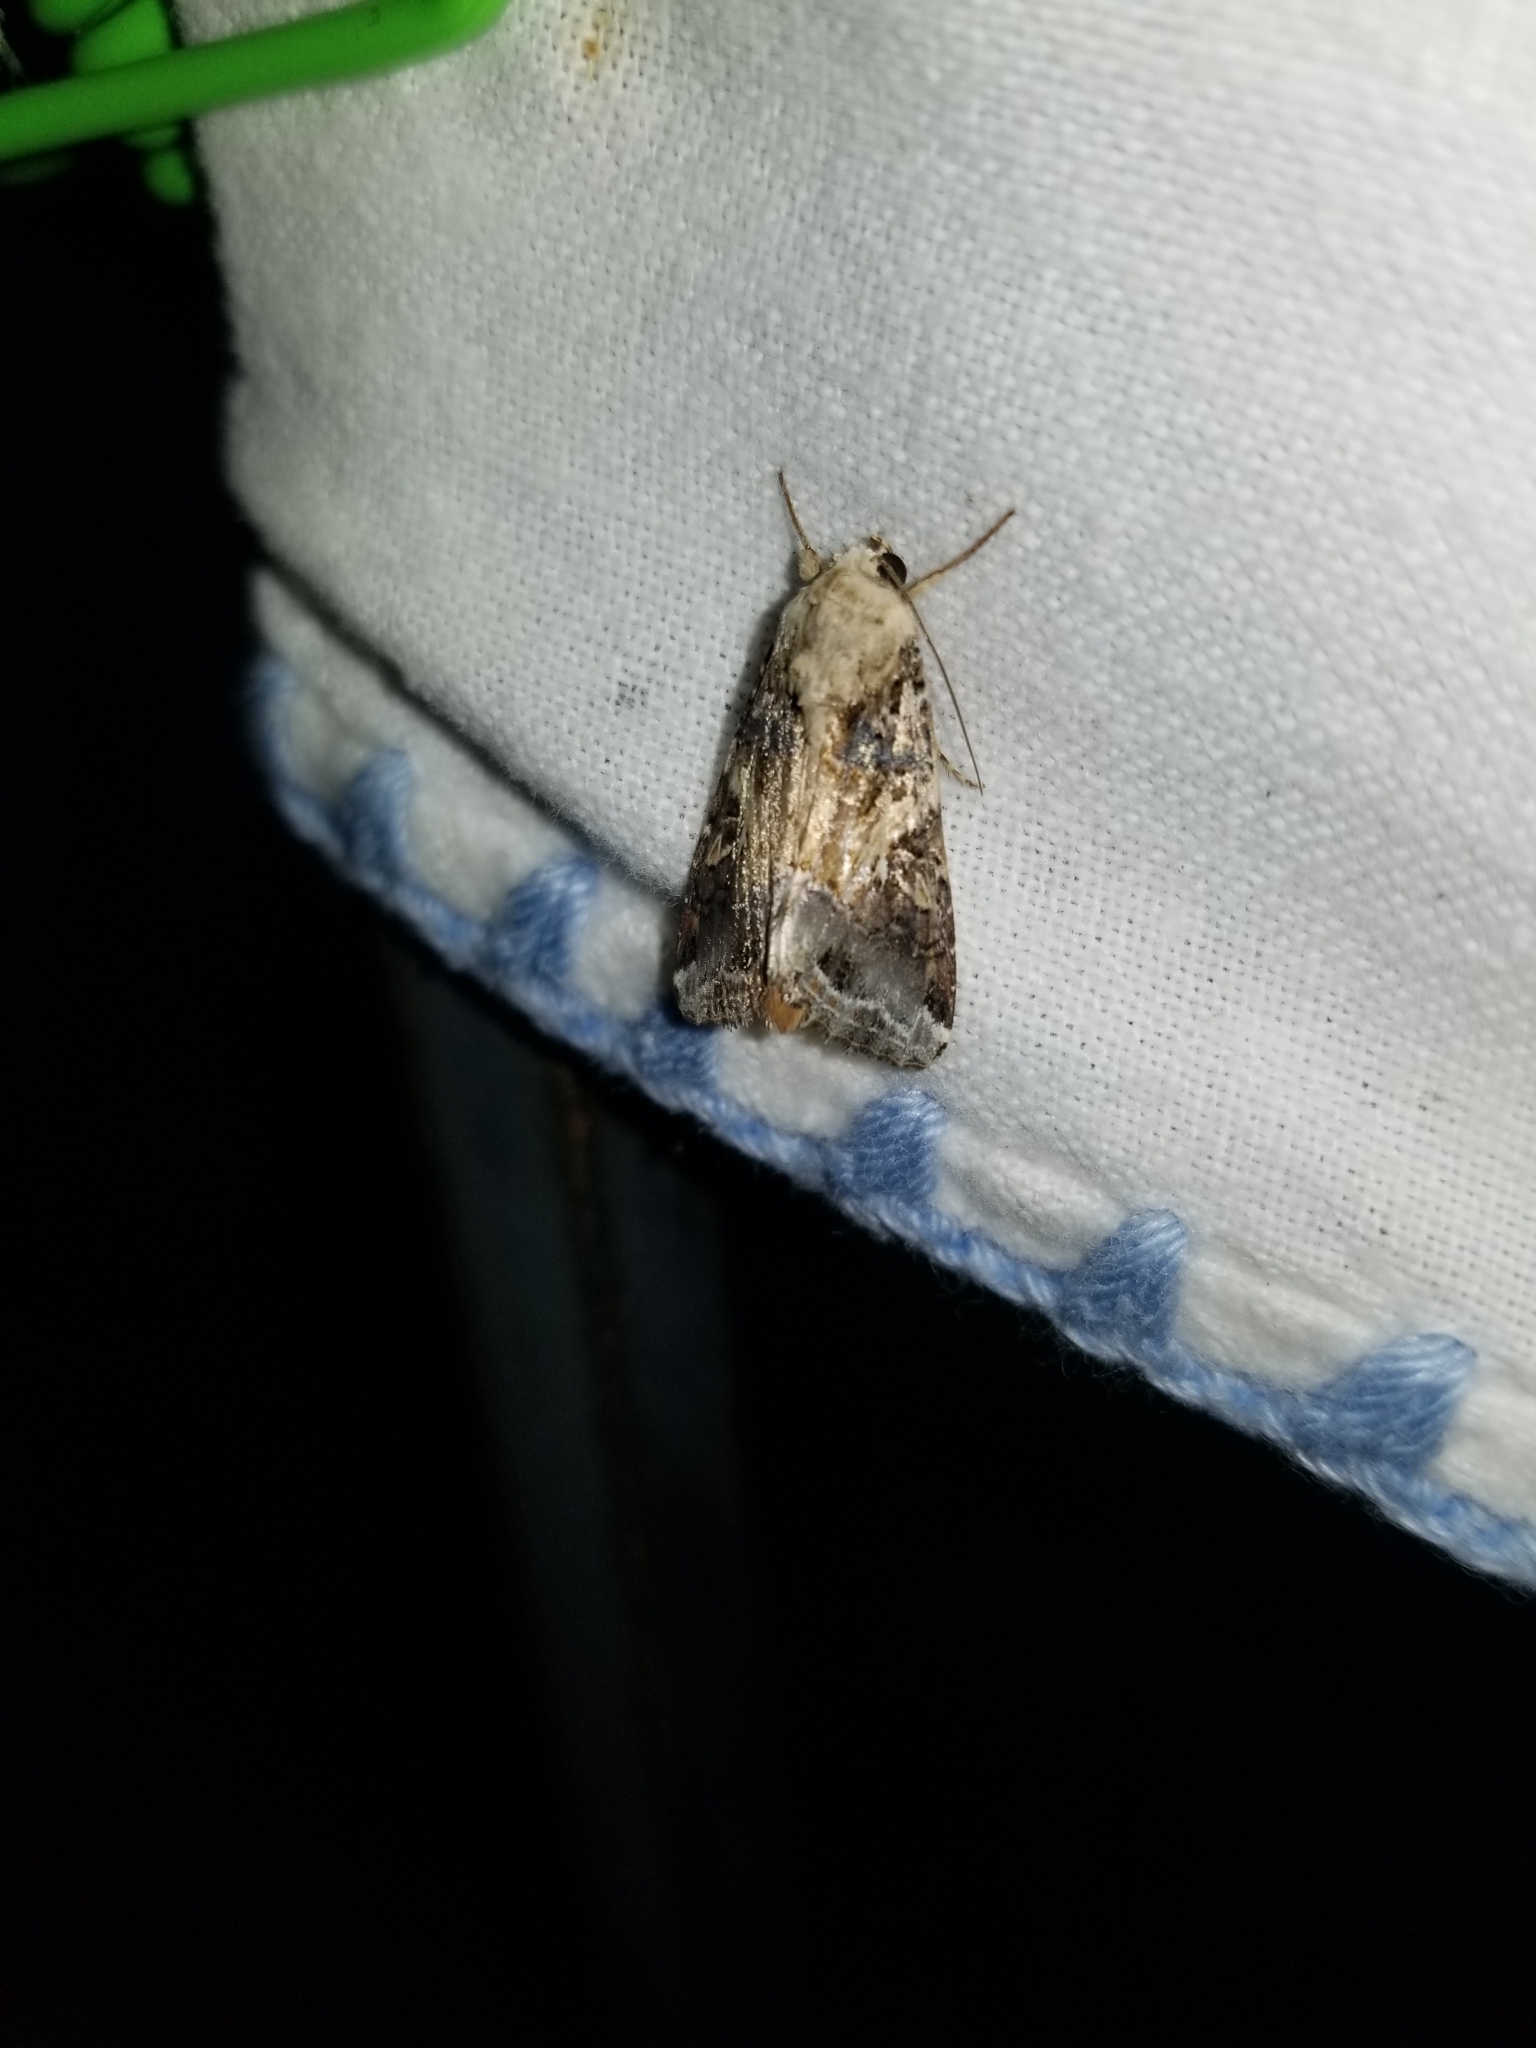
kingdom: Animalia
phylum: Arthropoda
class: Insecta
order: Lepidoptera
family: Noctuidae
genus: Spodoptera
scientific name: Spodoptera ornithogalli
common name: Yellow-striped armyworm
